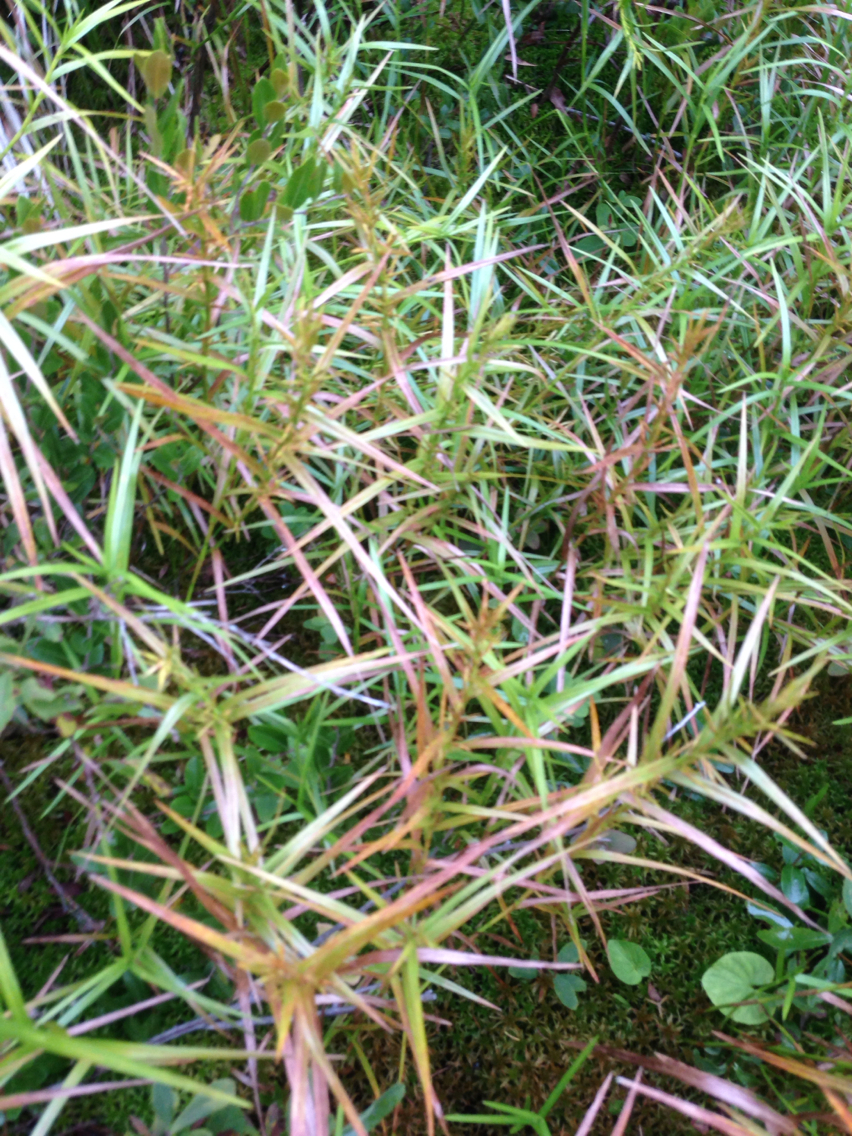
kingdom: Plantae
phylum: Tracheophyta
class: Liliopsida
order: Poales
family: Cyperaceae
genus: Dulichium
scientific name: Dulichium arundinaceum
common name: Three-way sedge
